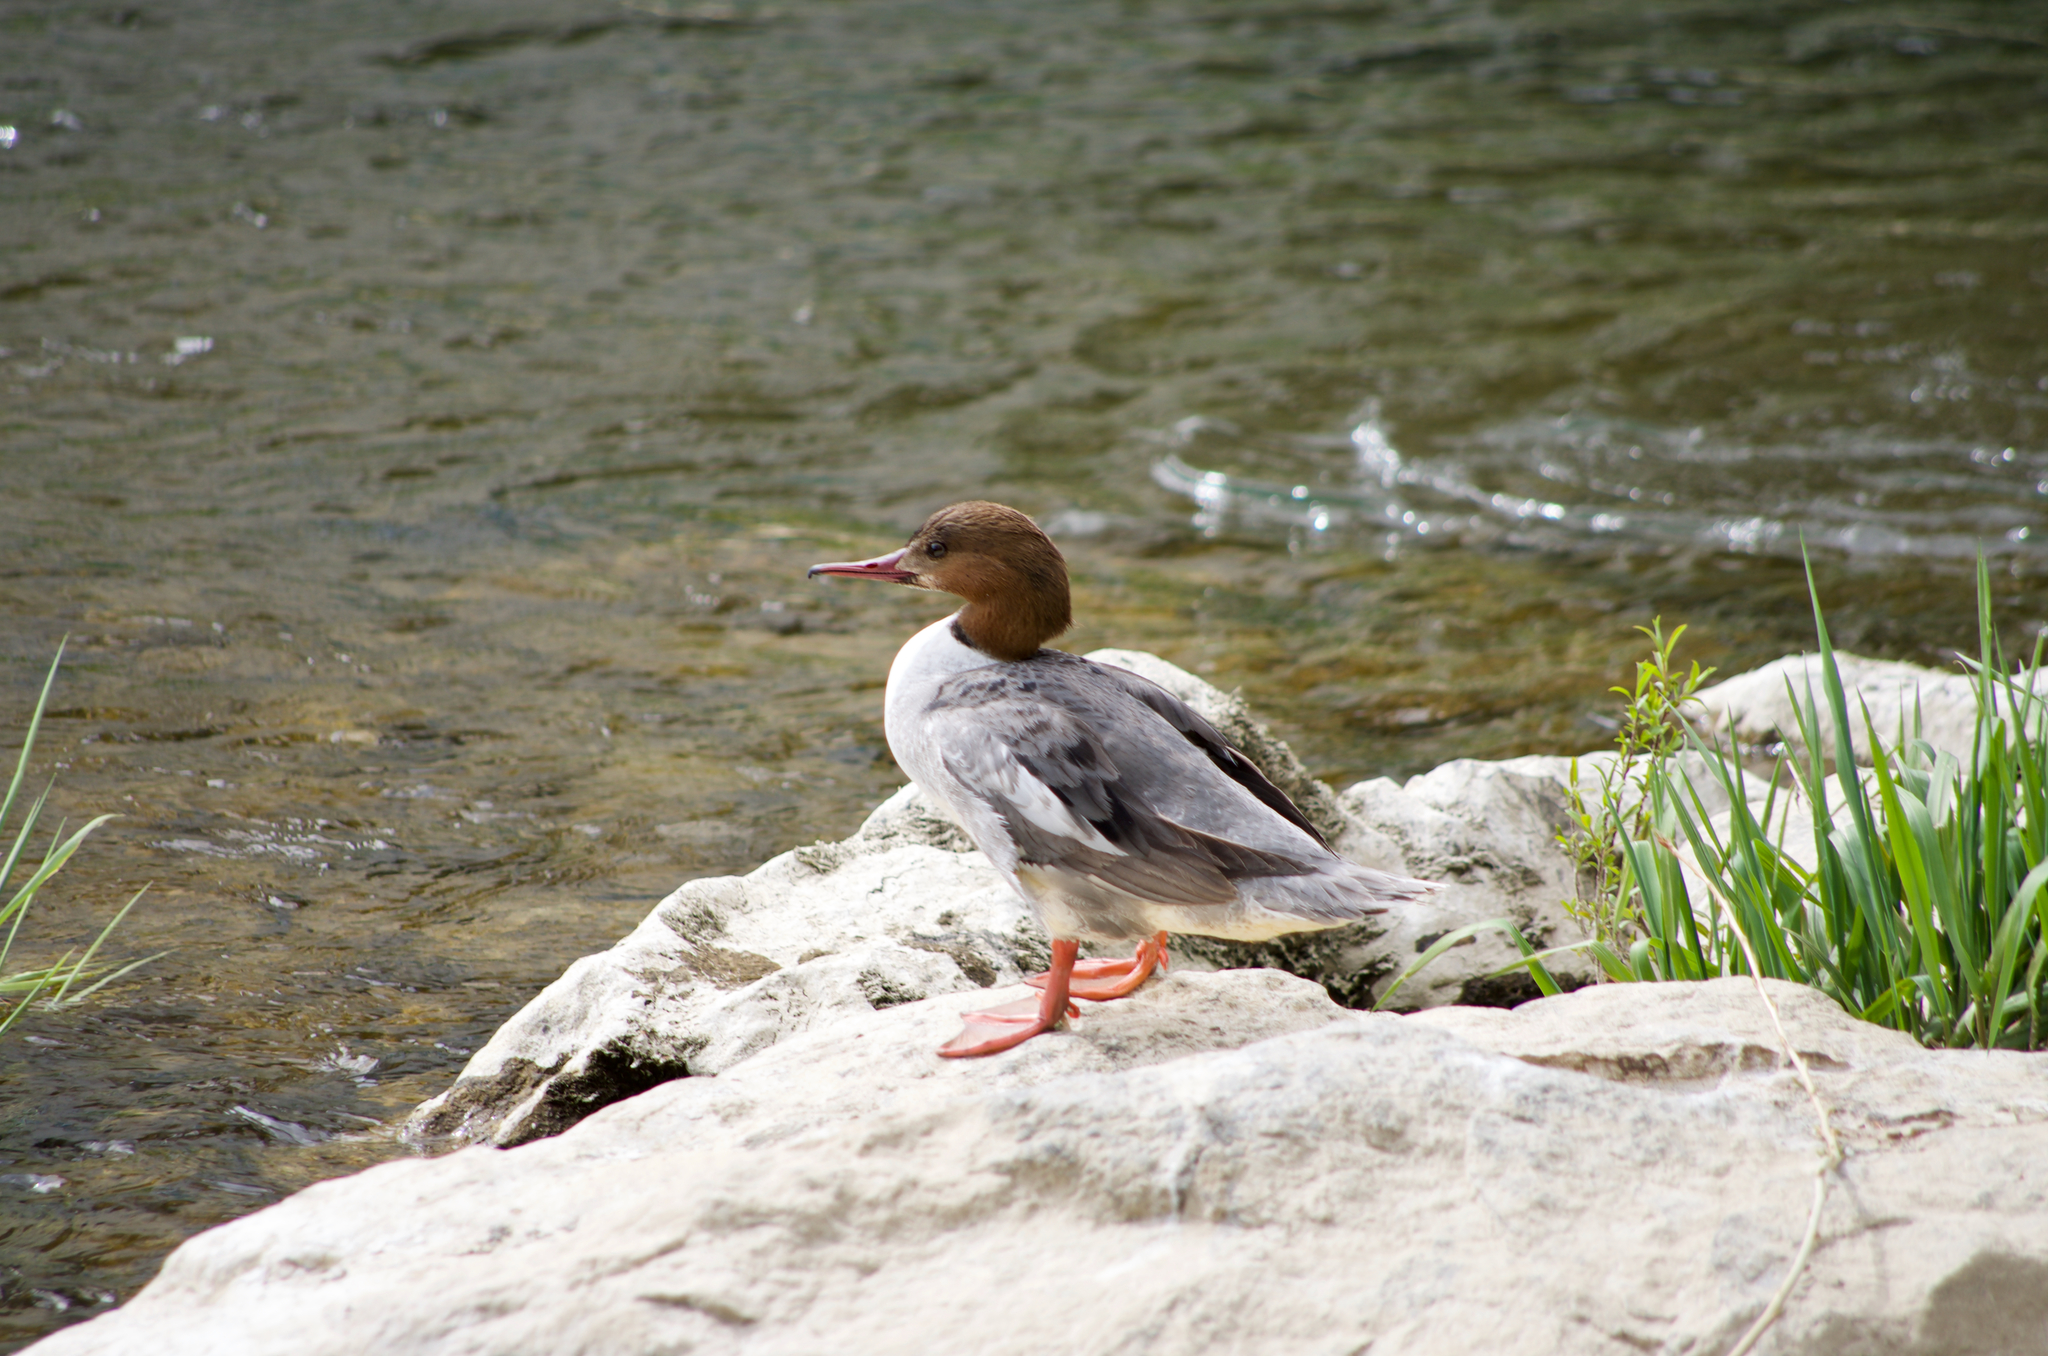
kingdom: Animalia
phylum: Chordata
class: Aves
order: Anseriformes
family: Anatidae
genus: Mergus
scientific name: Mergus merganser
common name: Common merganser
